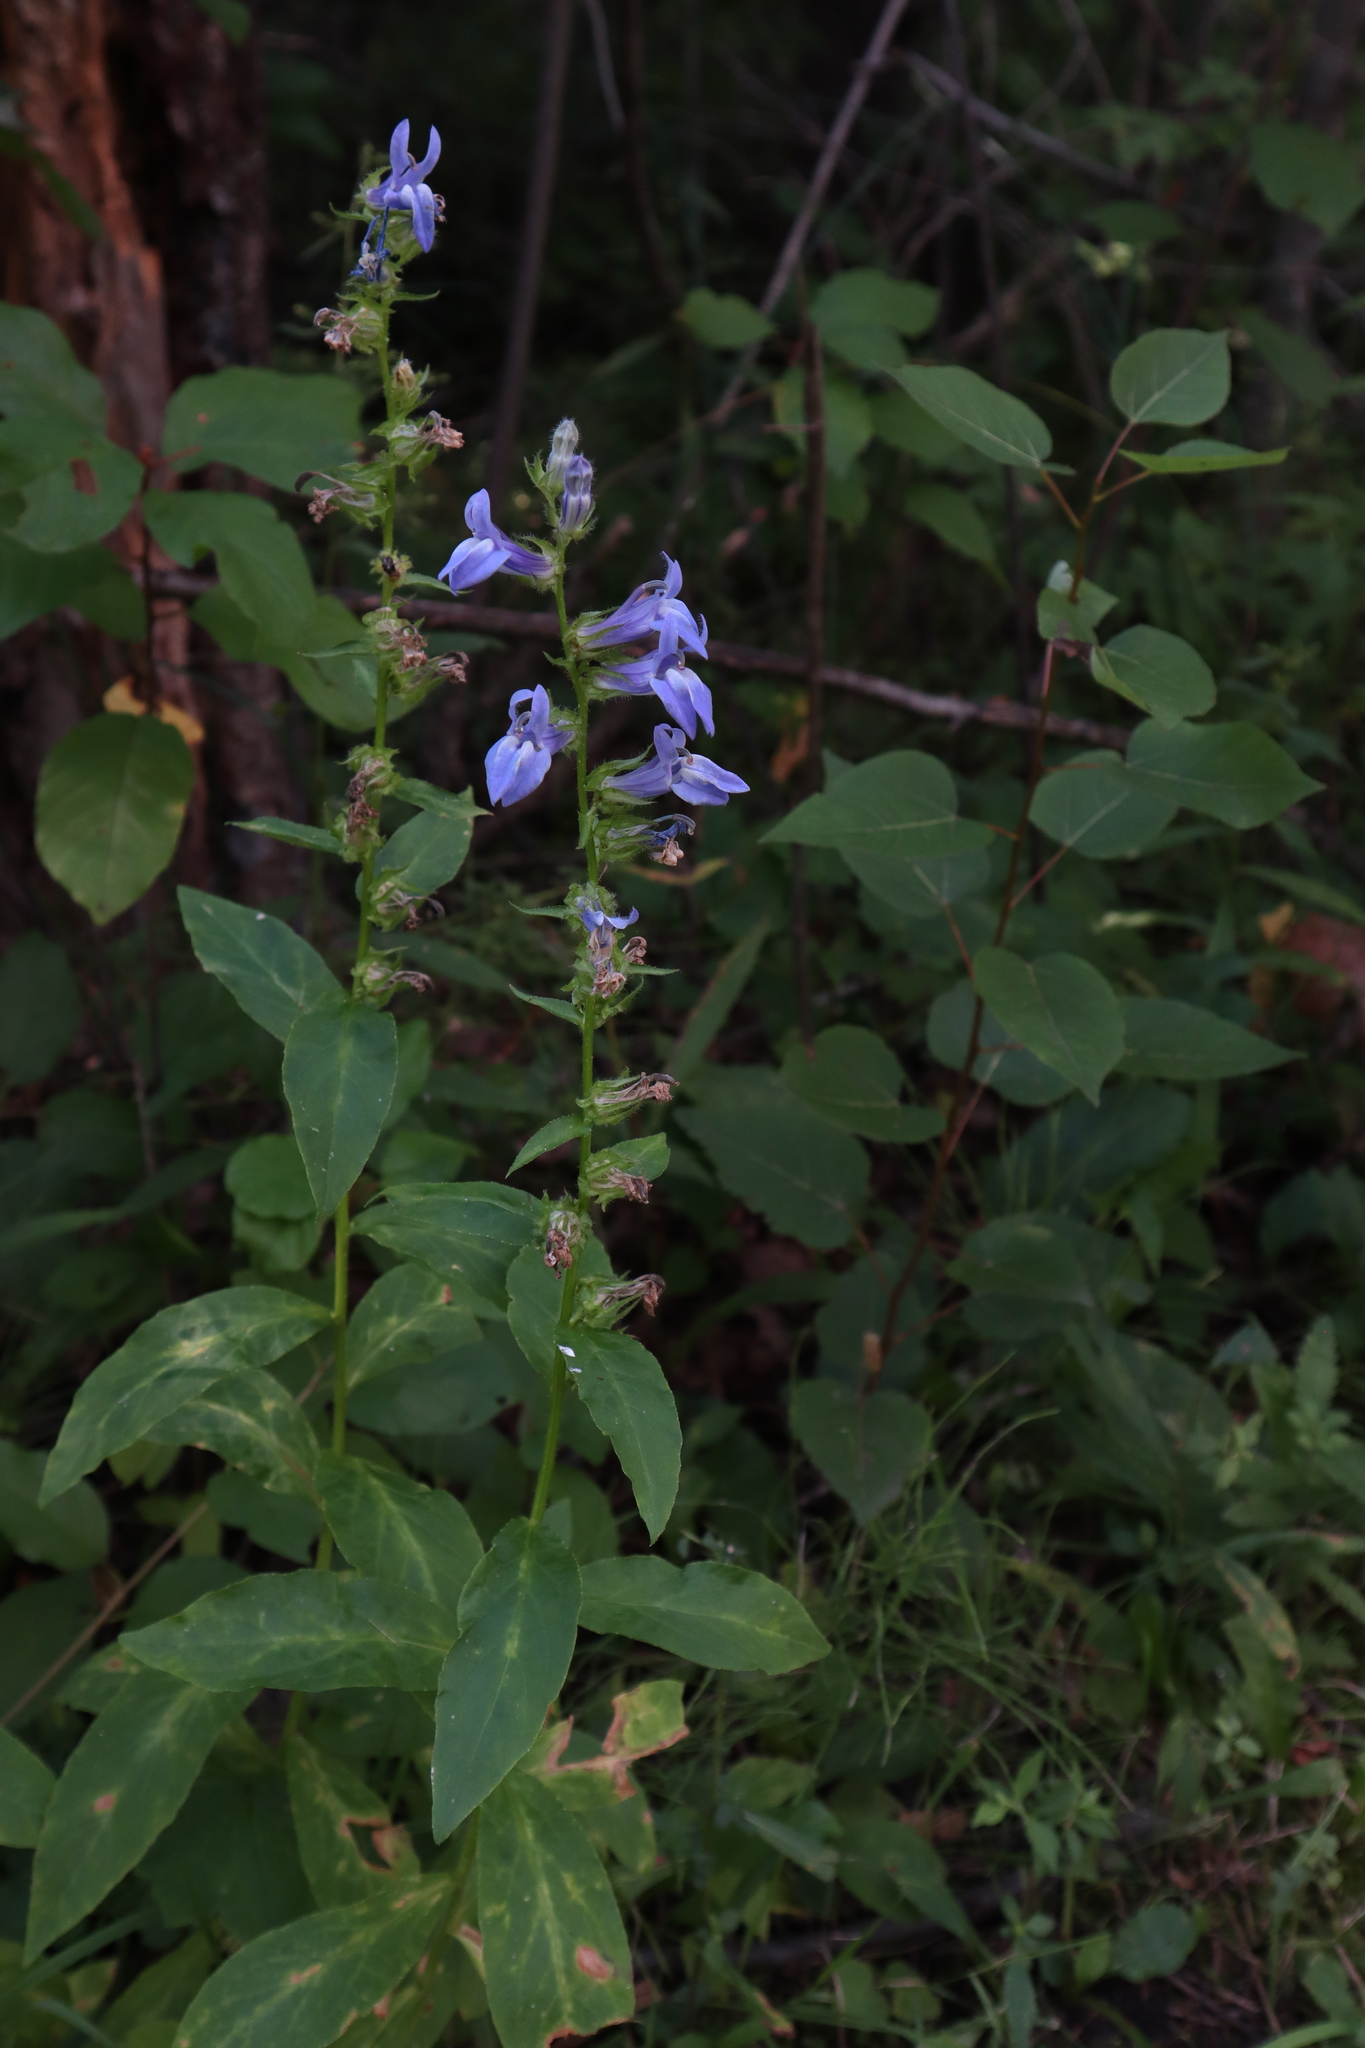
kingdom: Plantae
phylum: Tracheophyta
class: Magnoliopsida
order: Asterales
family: Campanulaceae
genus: Lobelia
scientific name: Lobelia siphilitica
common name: Great lobelia
